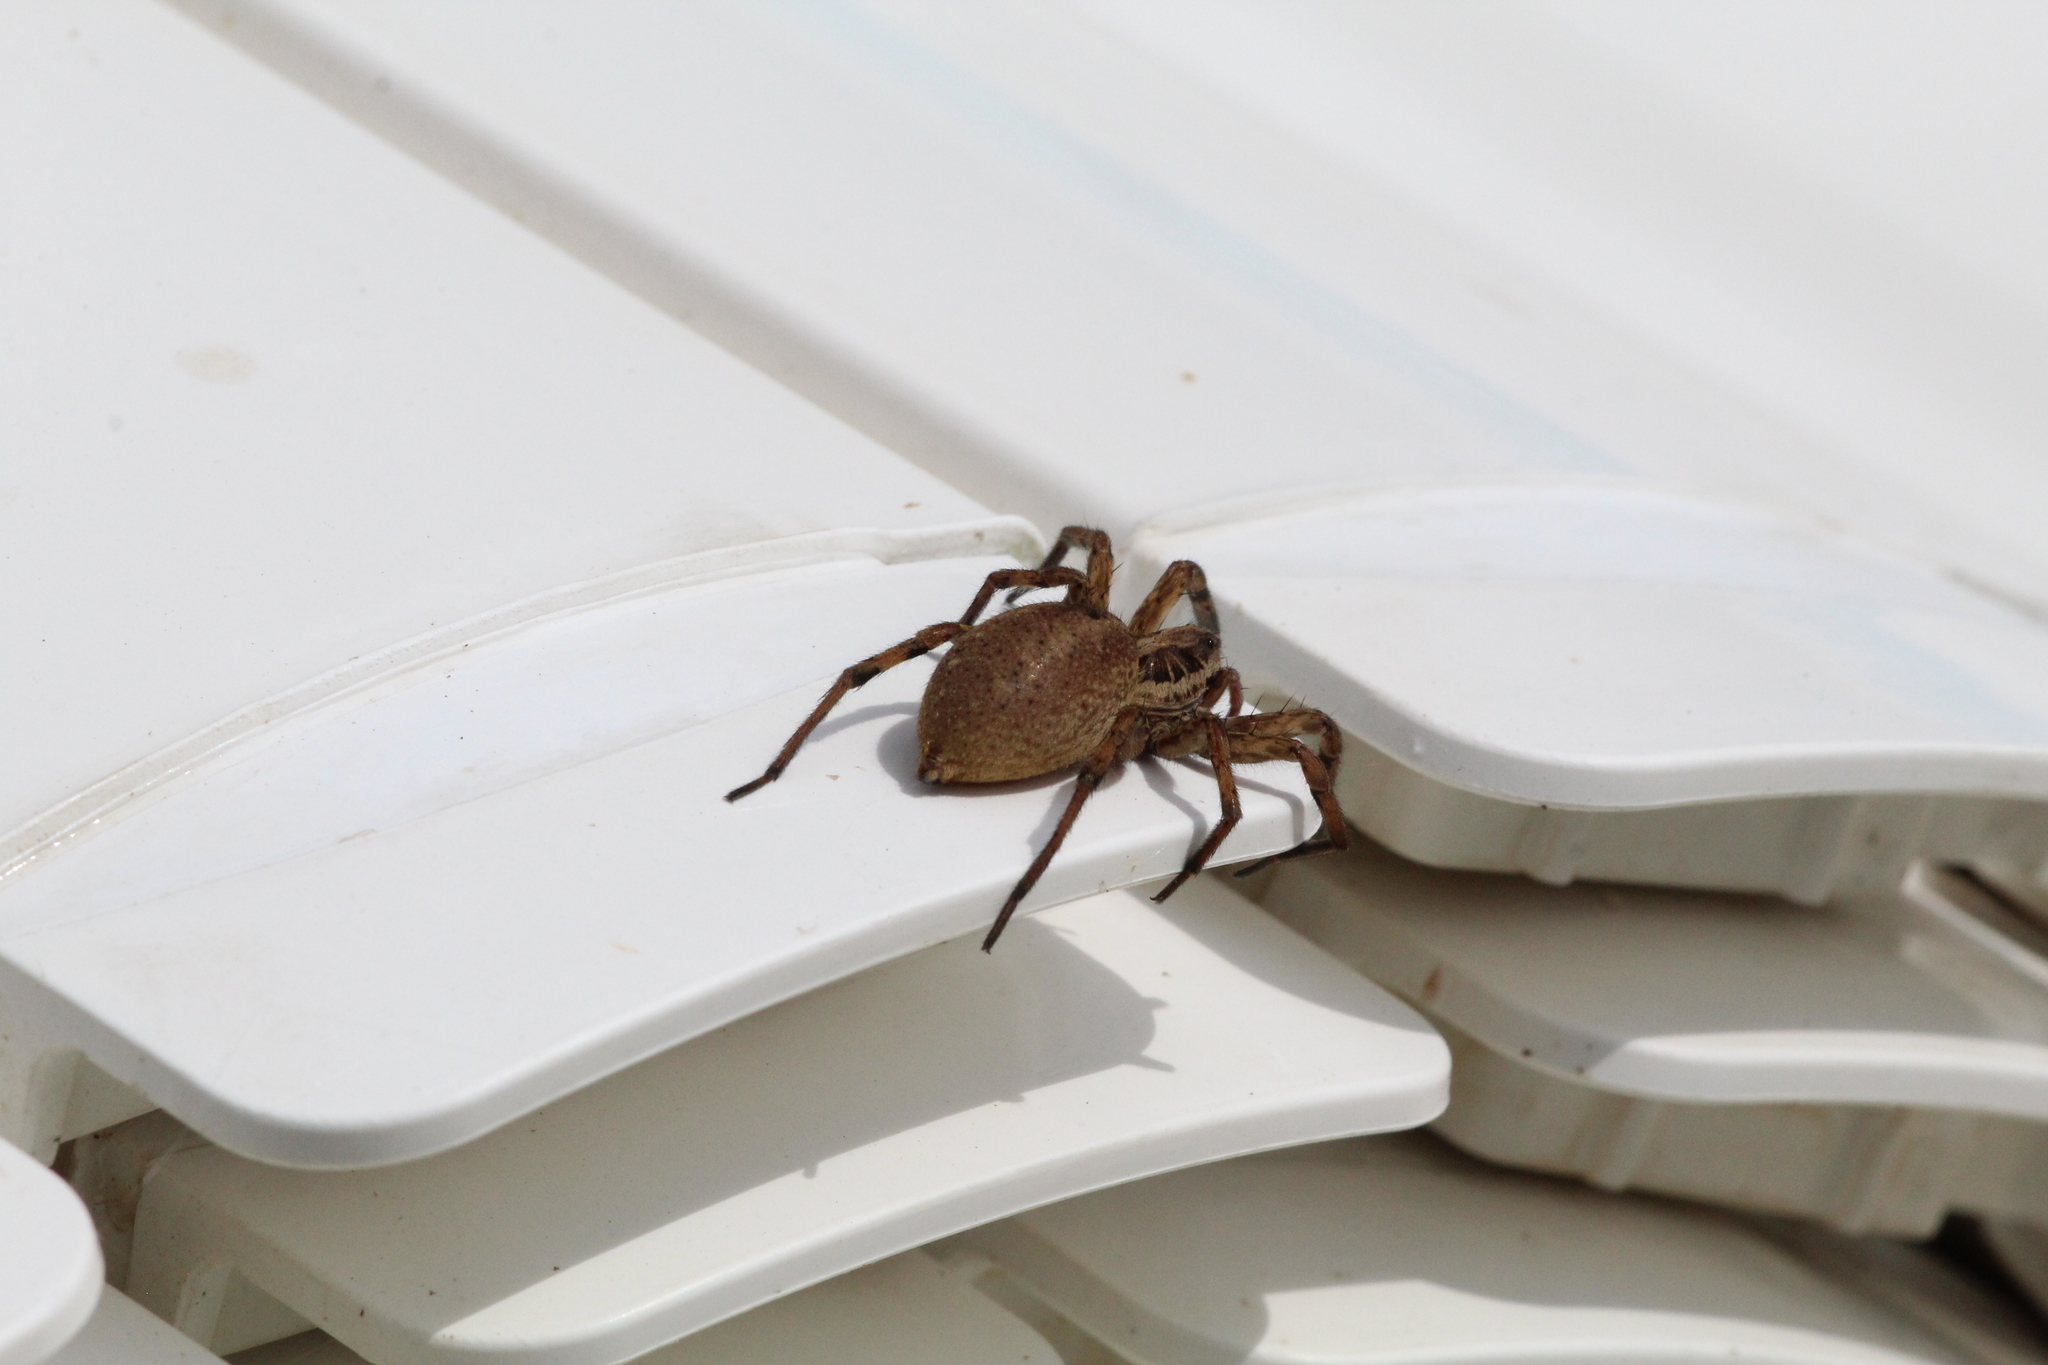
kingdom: Animalia
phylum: Arthropoda
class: Arachnida
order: Araneae
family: Lycosidae
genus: Hogna
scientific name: Hogna radiata
